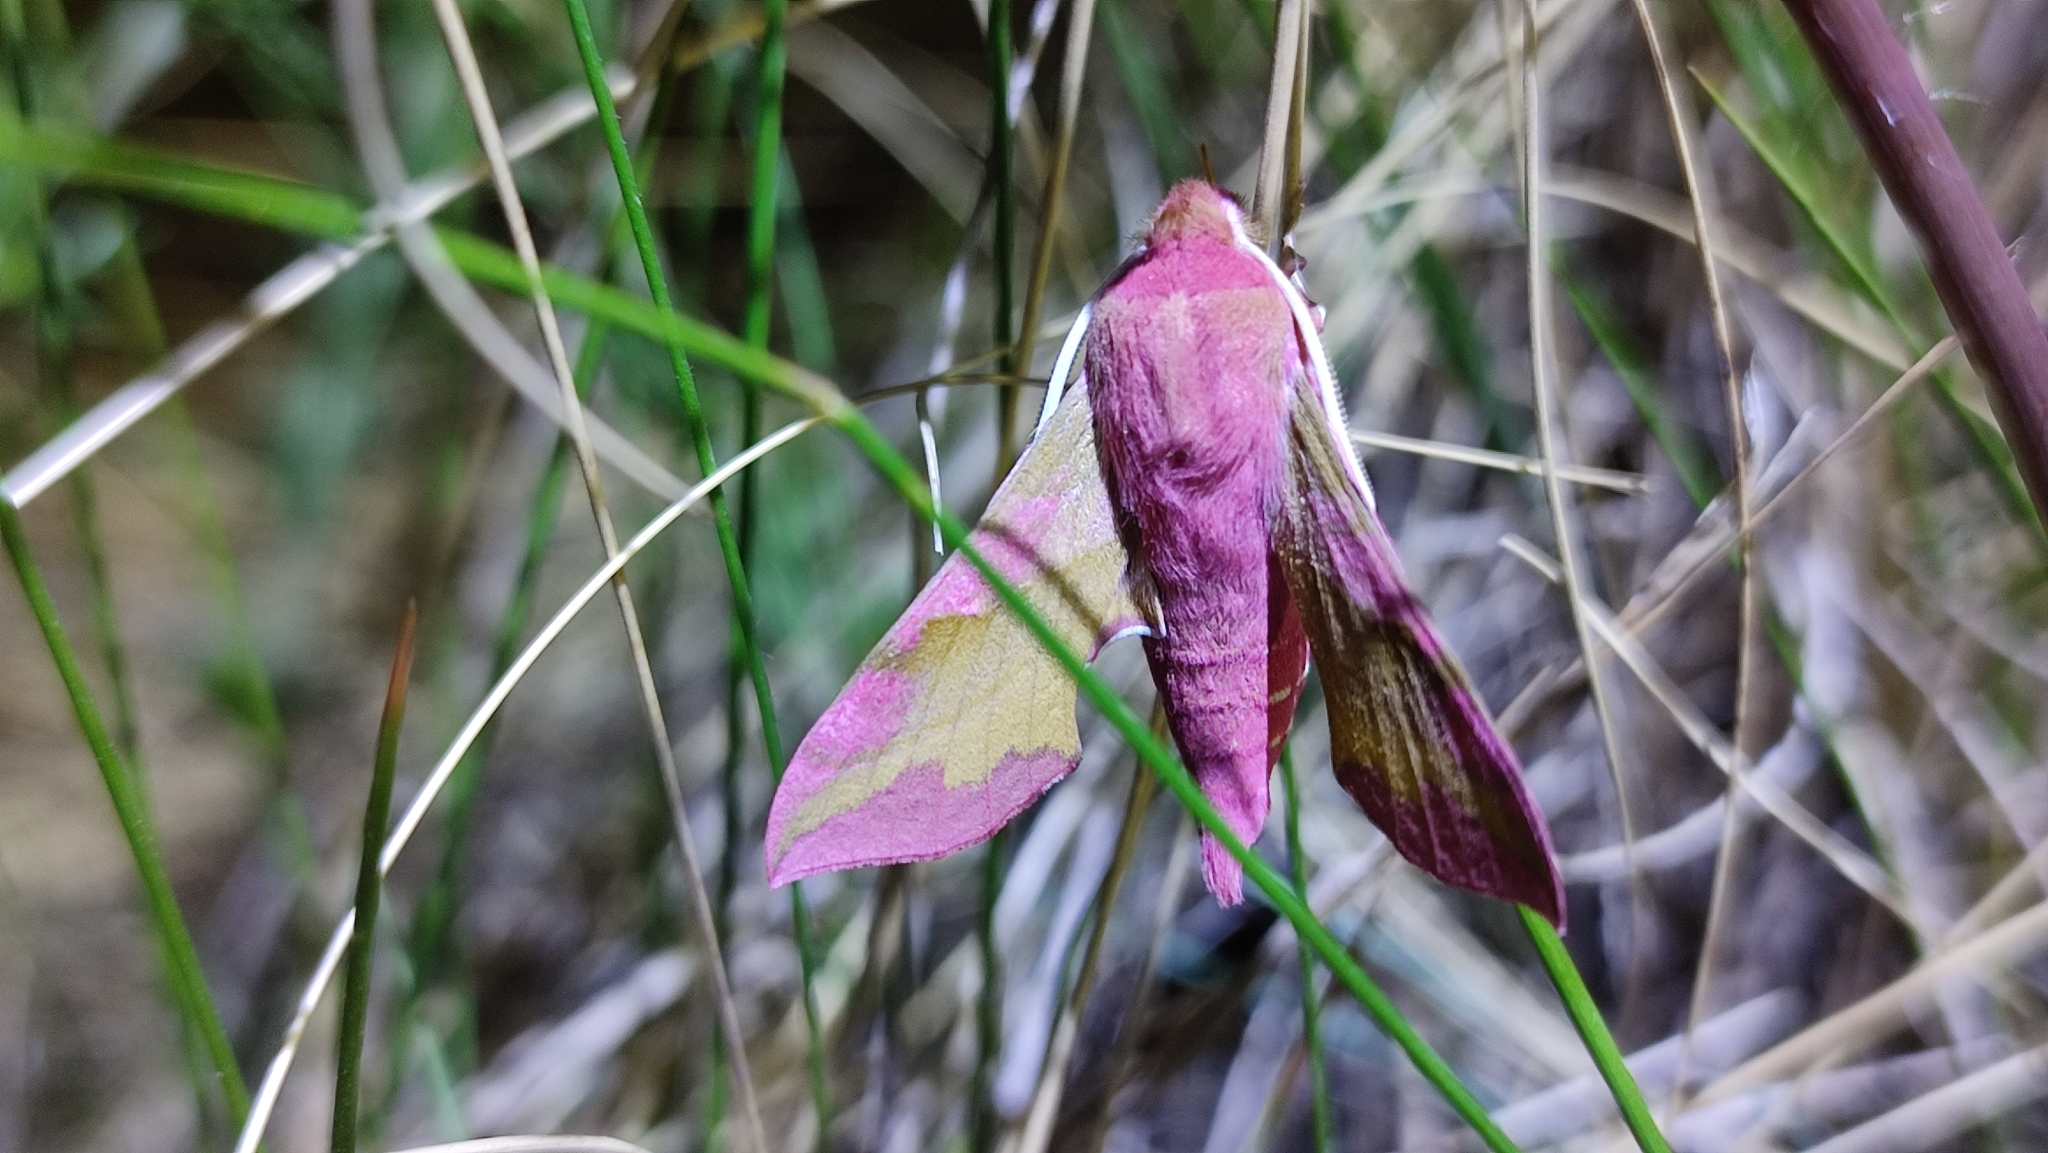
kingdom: Animalia
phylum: Arthropoda
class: Insecta
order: Lepidoptera
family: Sphingidae
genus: Deilephila
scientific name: Deilephila porcellus
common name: Small elephant hawk-moth
